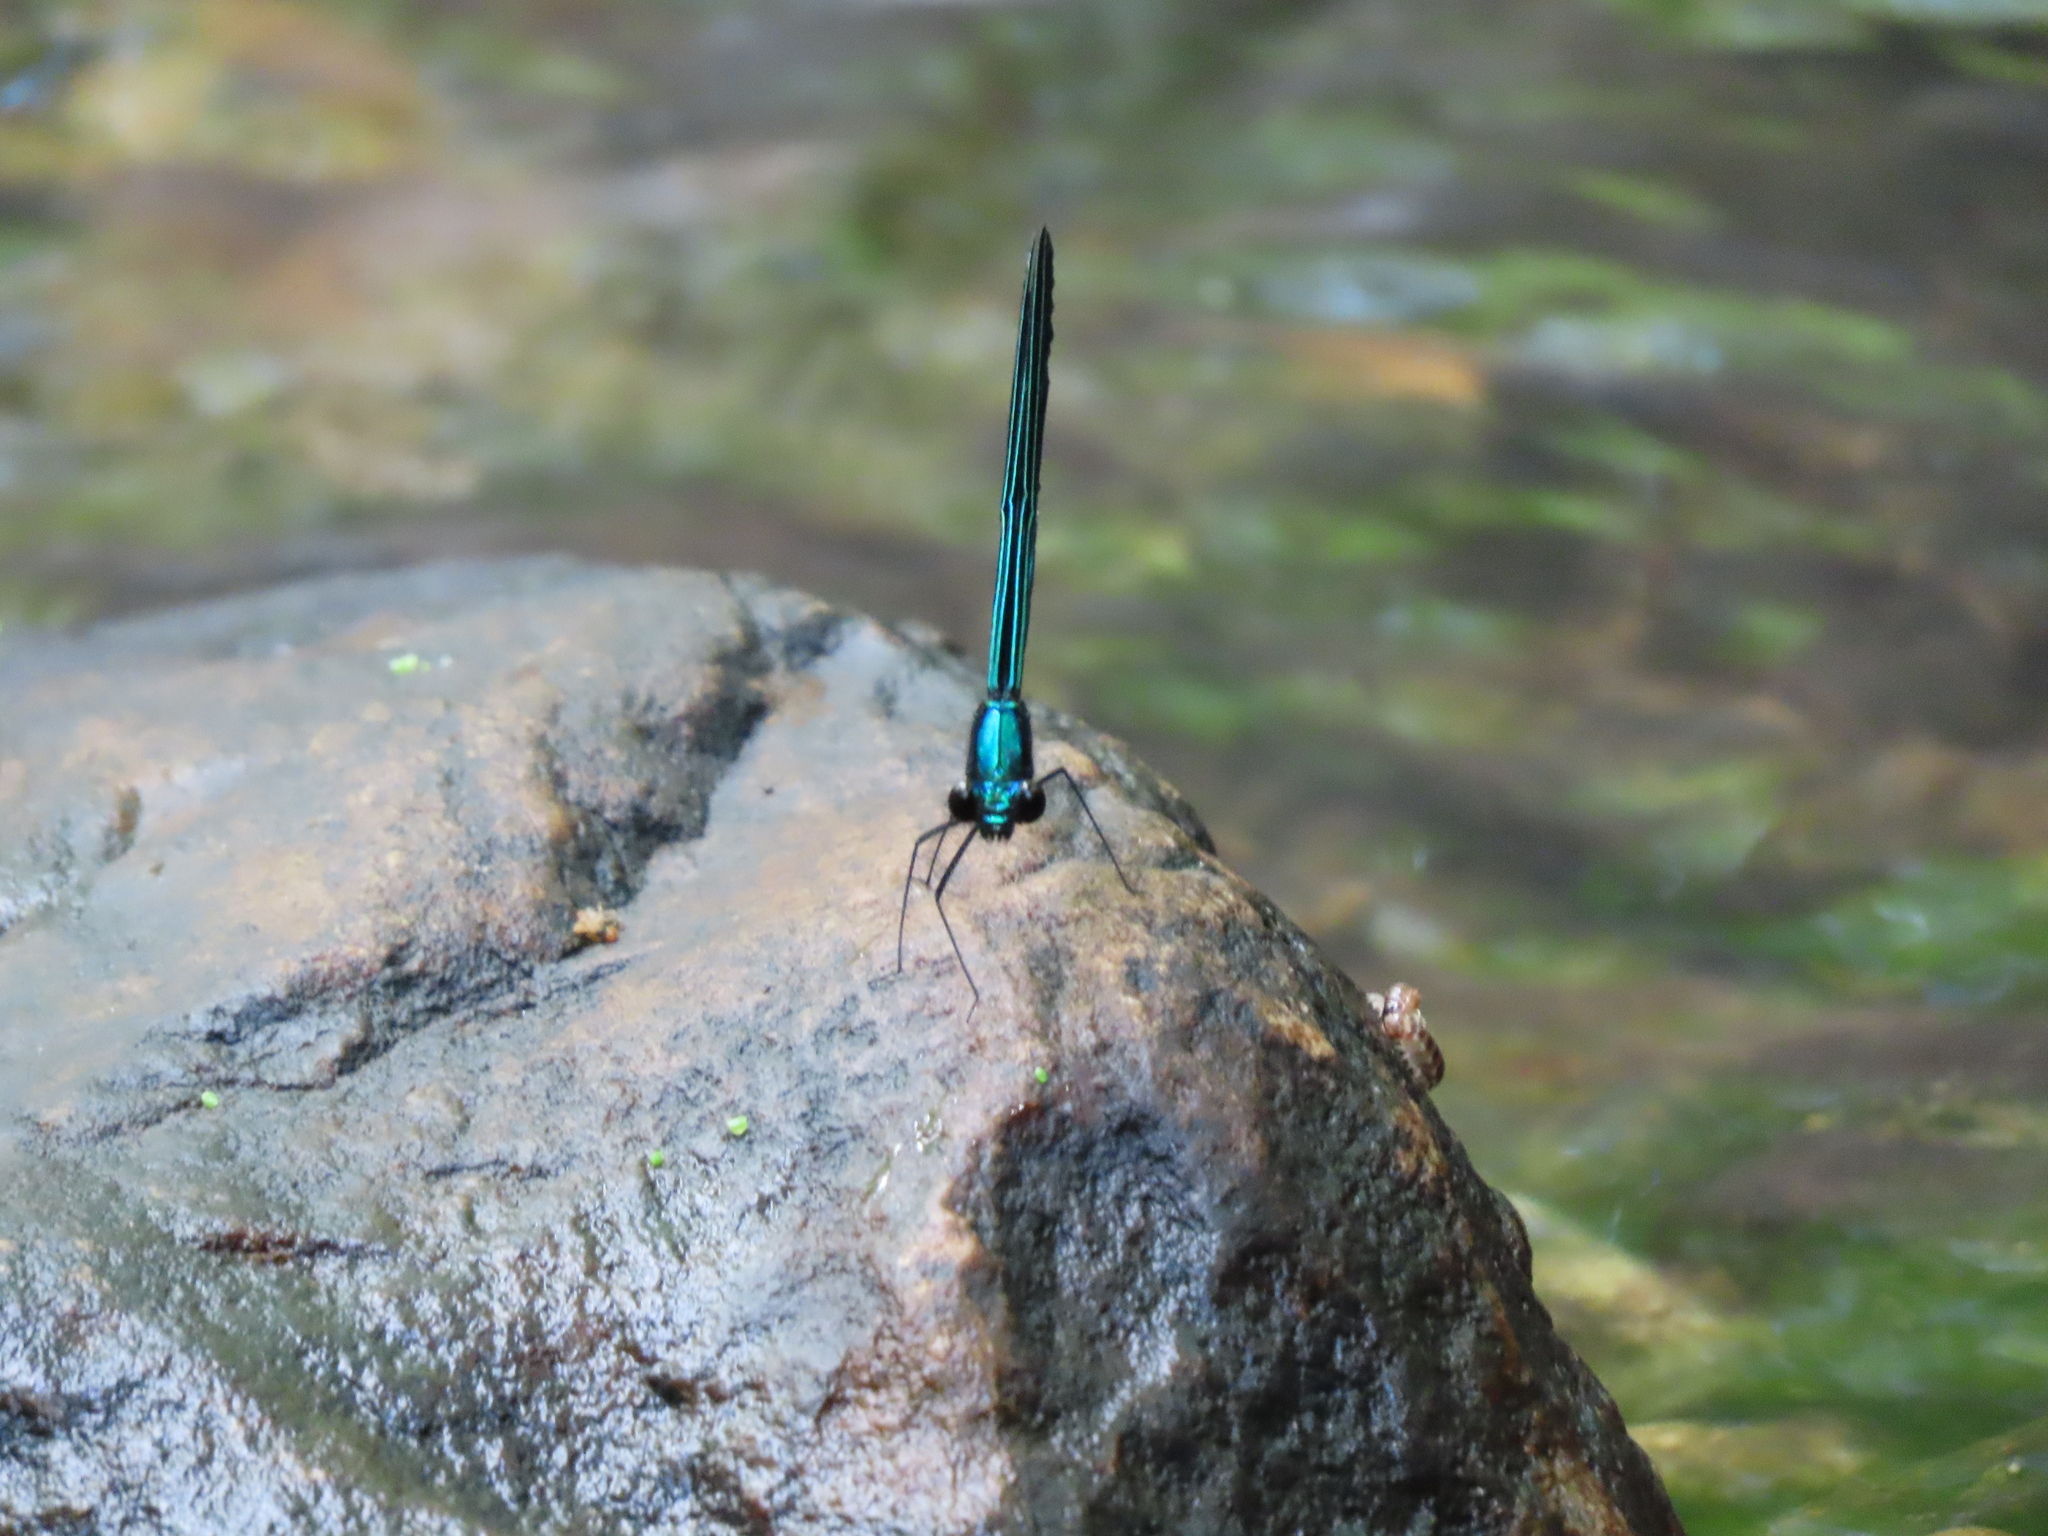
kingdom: Animalia
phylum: Arthropoda
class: Insecta
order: Odonata
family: Calopterygidae
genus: Calopteryx
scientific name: Calopteryx maculata
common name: Ebony jewelwing
